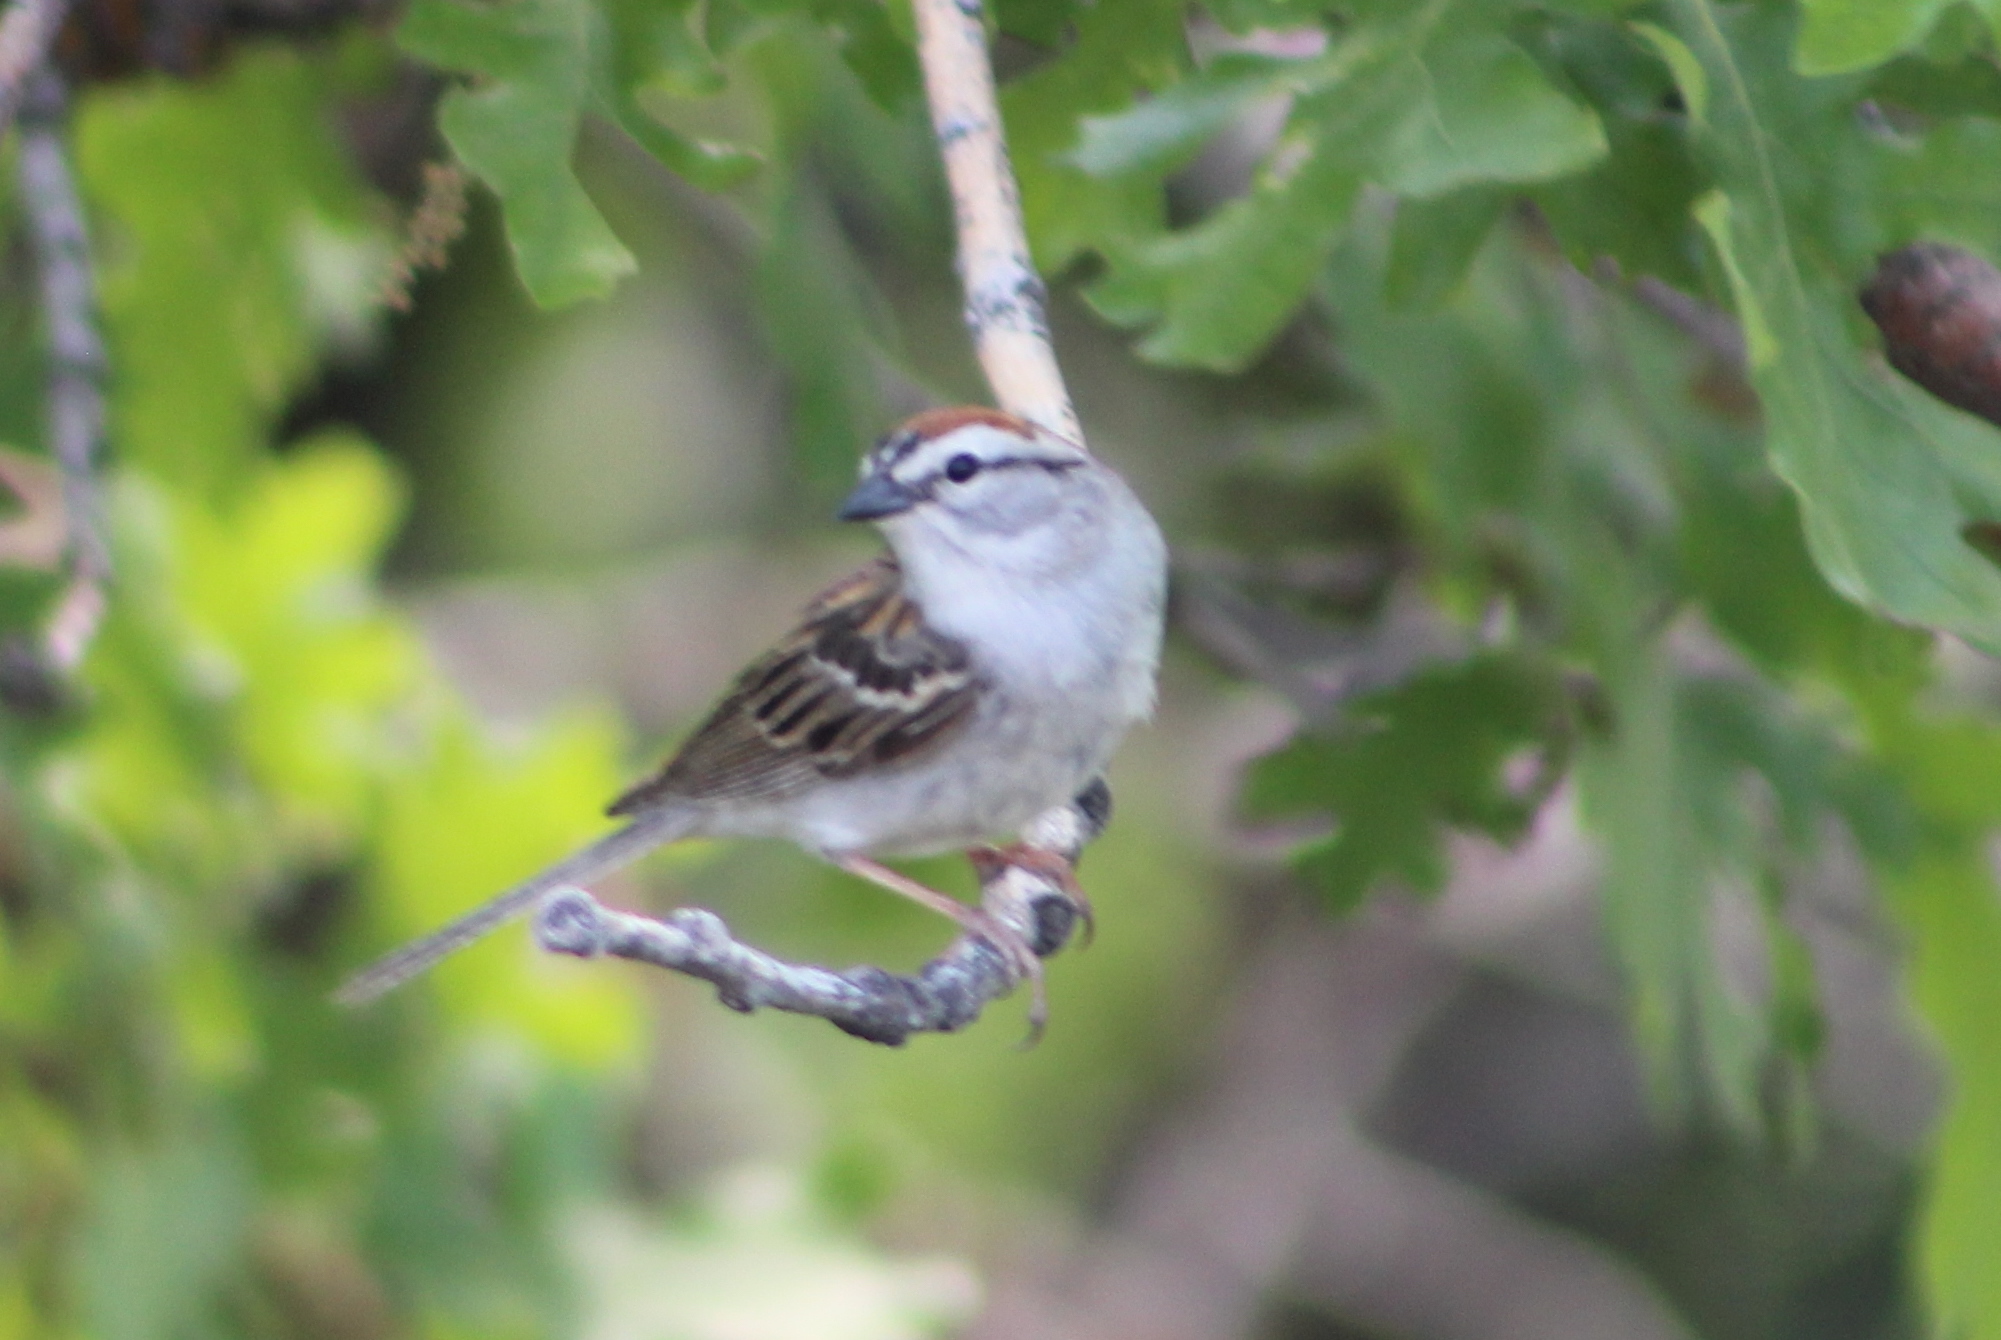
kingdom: Animalia
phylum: Chordata
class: Aves
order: Passeriformes
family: Passerellidae
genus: Spizella
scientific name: Spizella passerina
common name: Chipping sparrow
